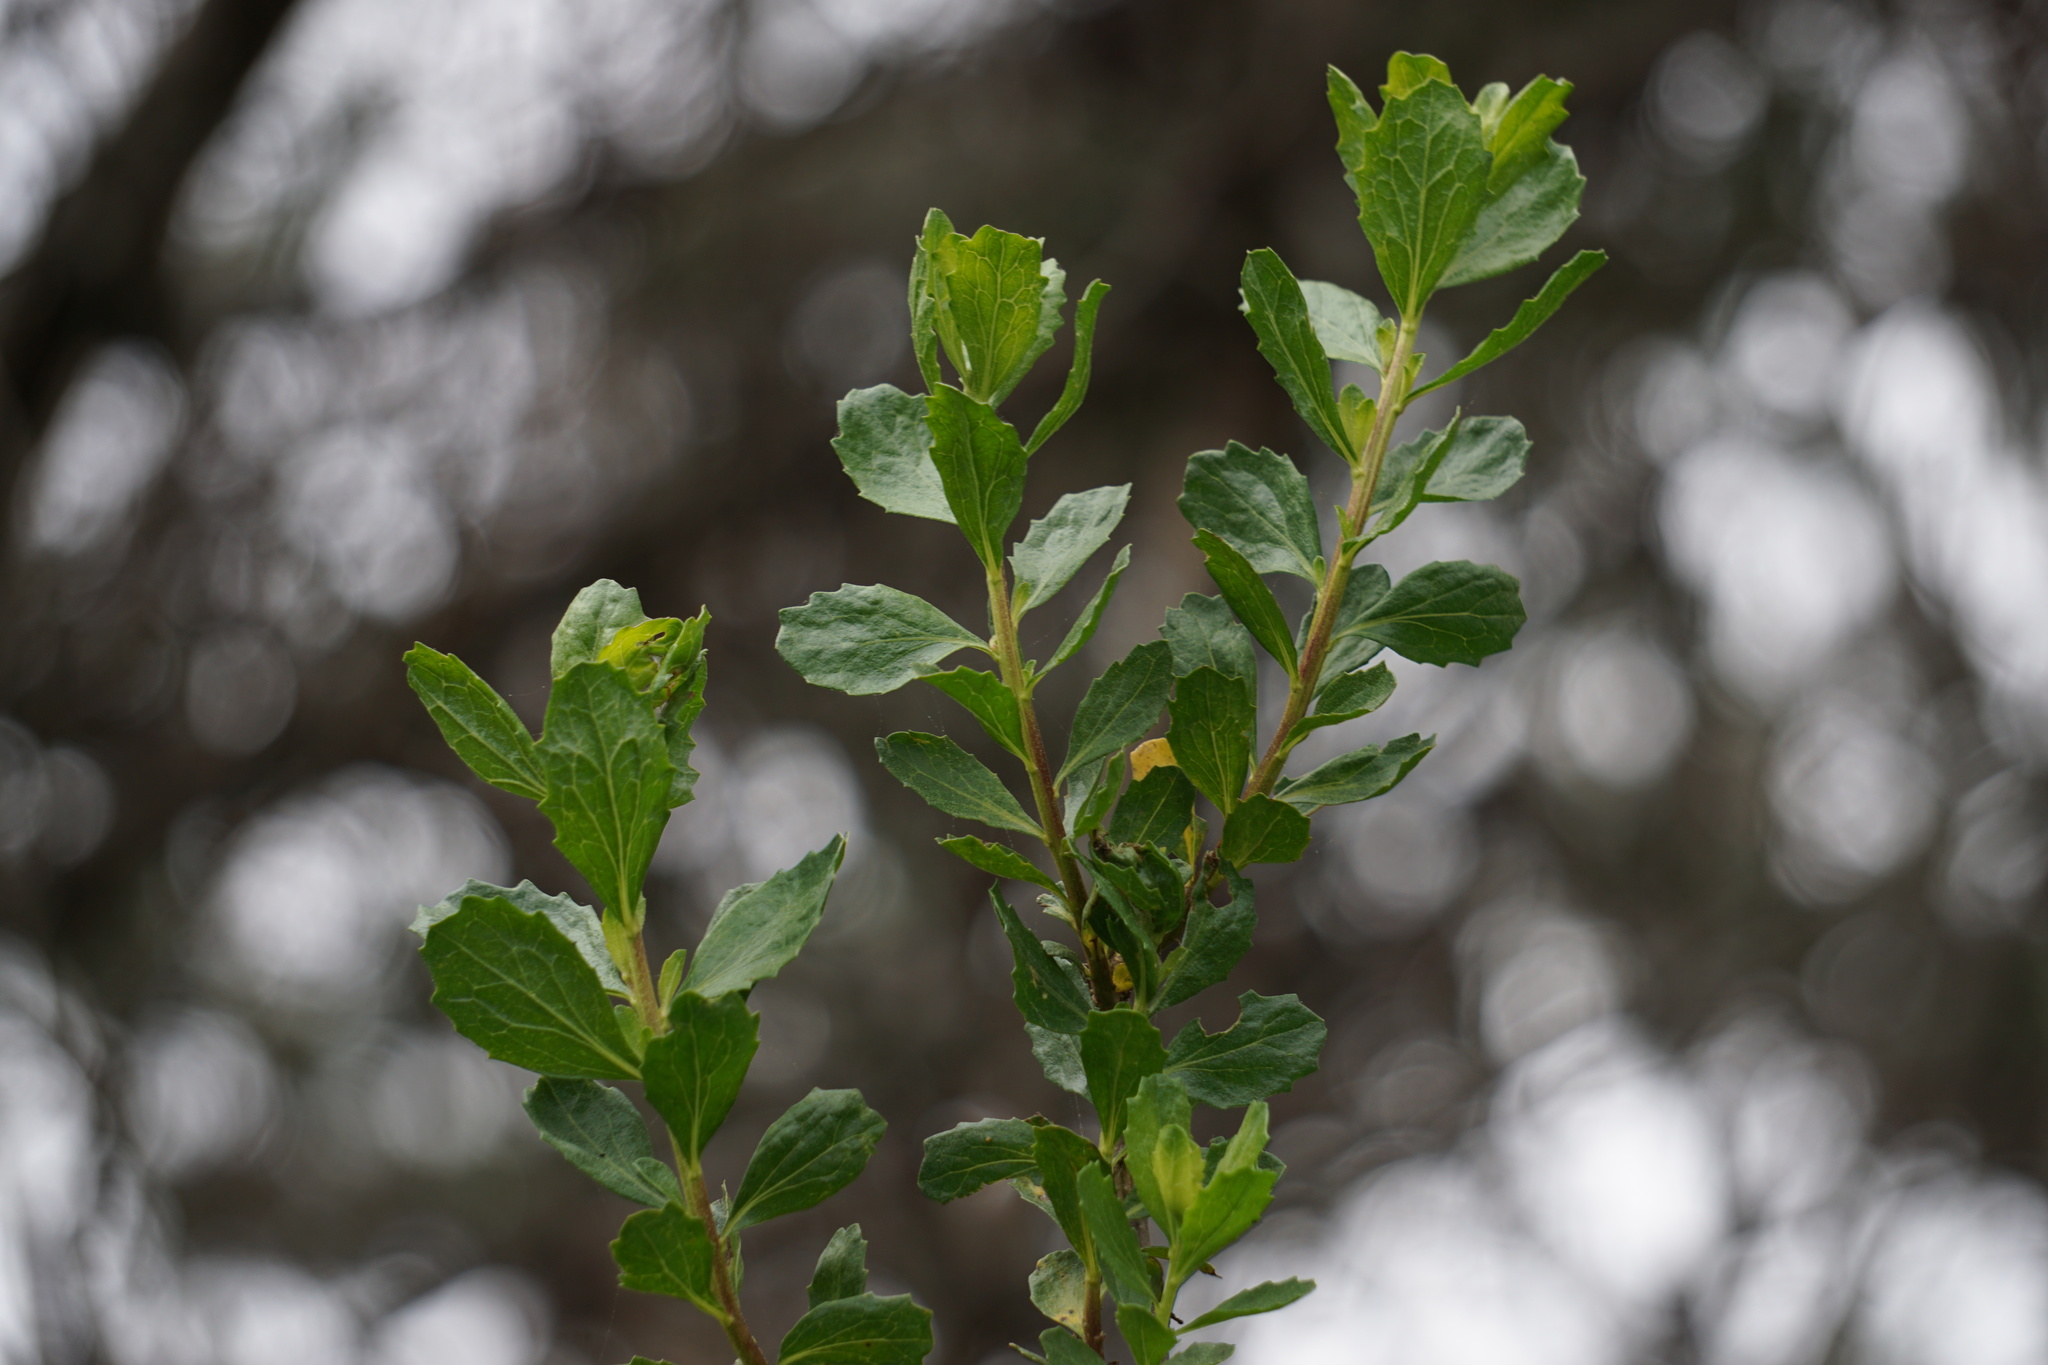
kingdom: Plantae
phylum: Tracheophyta
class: Magnoliopsida
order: Asterales
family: Asteraceae
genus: Baccharis
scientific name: Baccharis pilularis
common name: Coyotebrush
